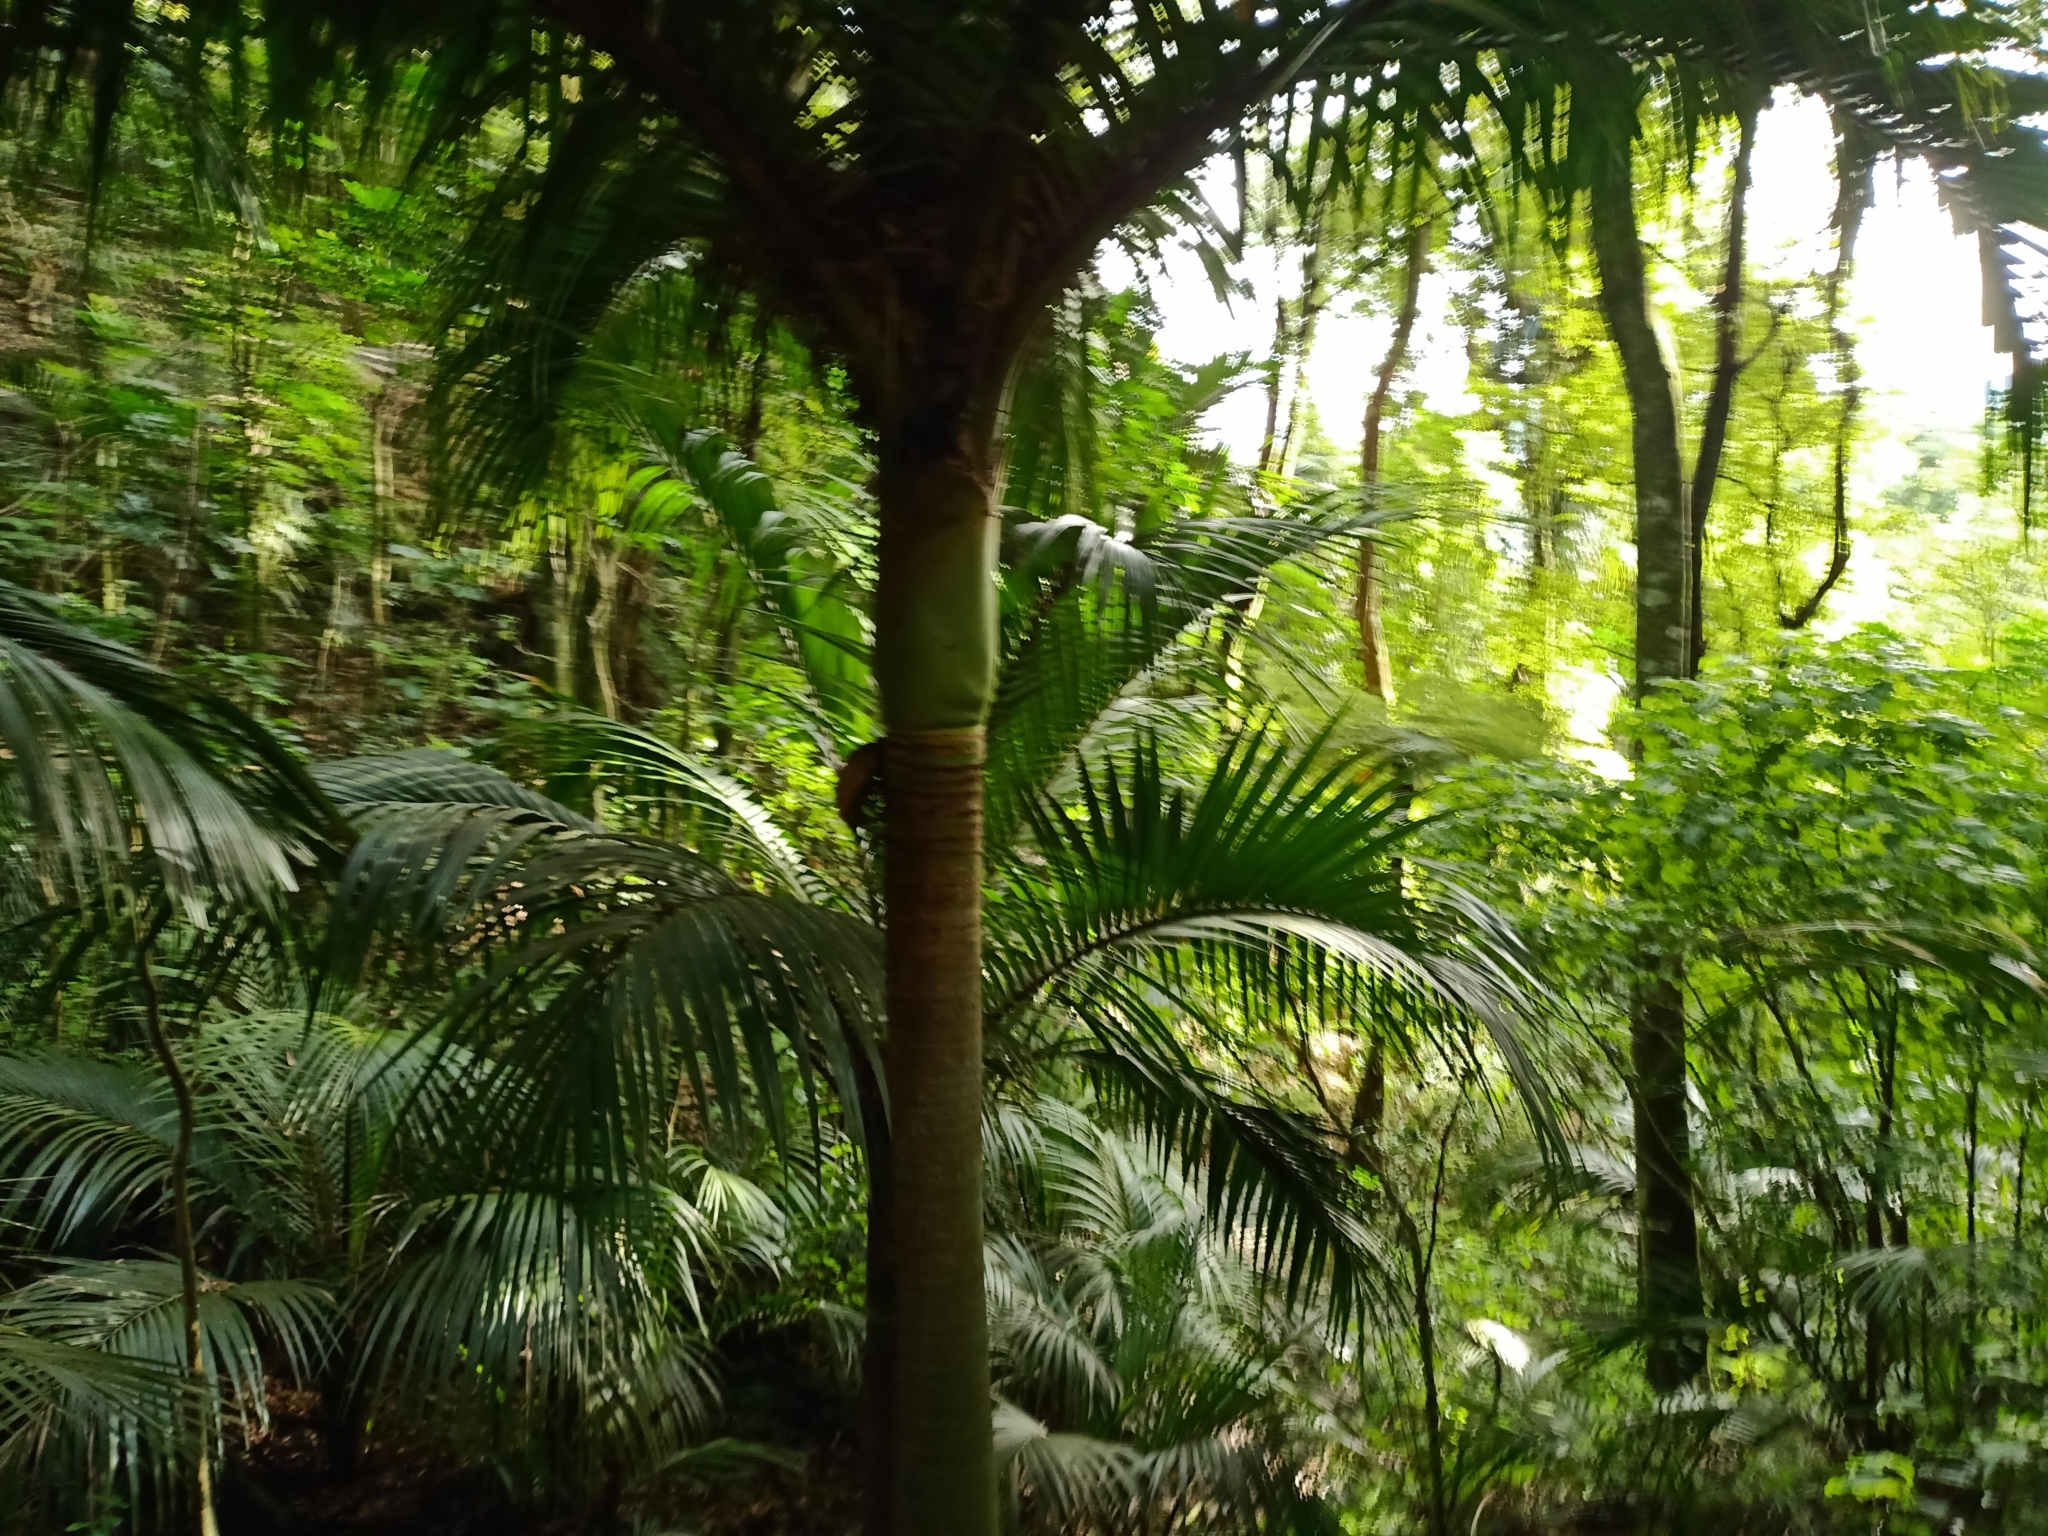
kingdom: Plantae
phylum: Tracheophyta
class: Liliopsida
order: Arecales
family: Arecaceae
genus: Rhopalostylis
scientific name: Rhopalostylis sapida
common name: Feather-duster palm
